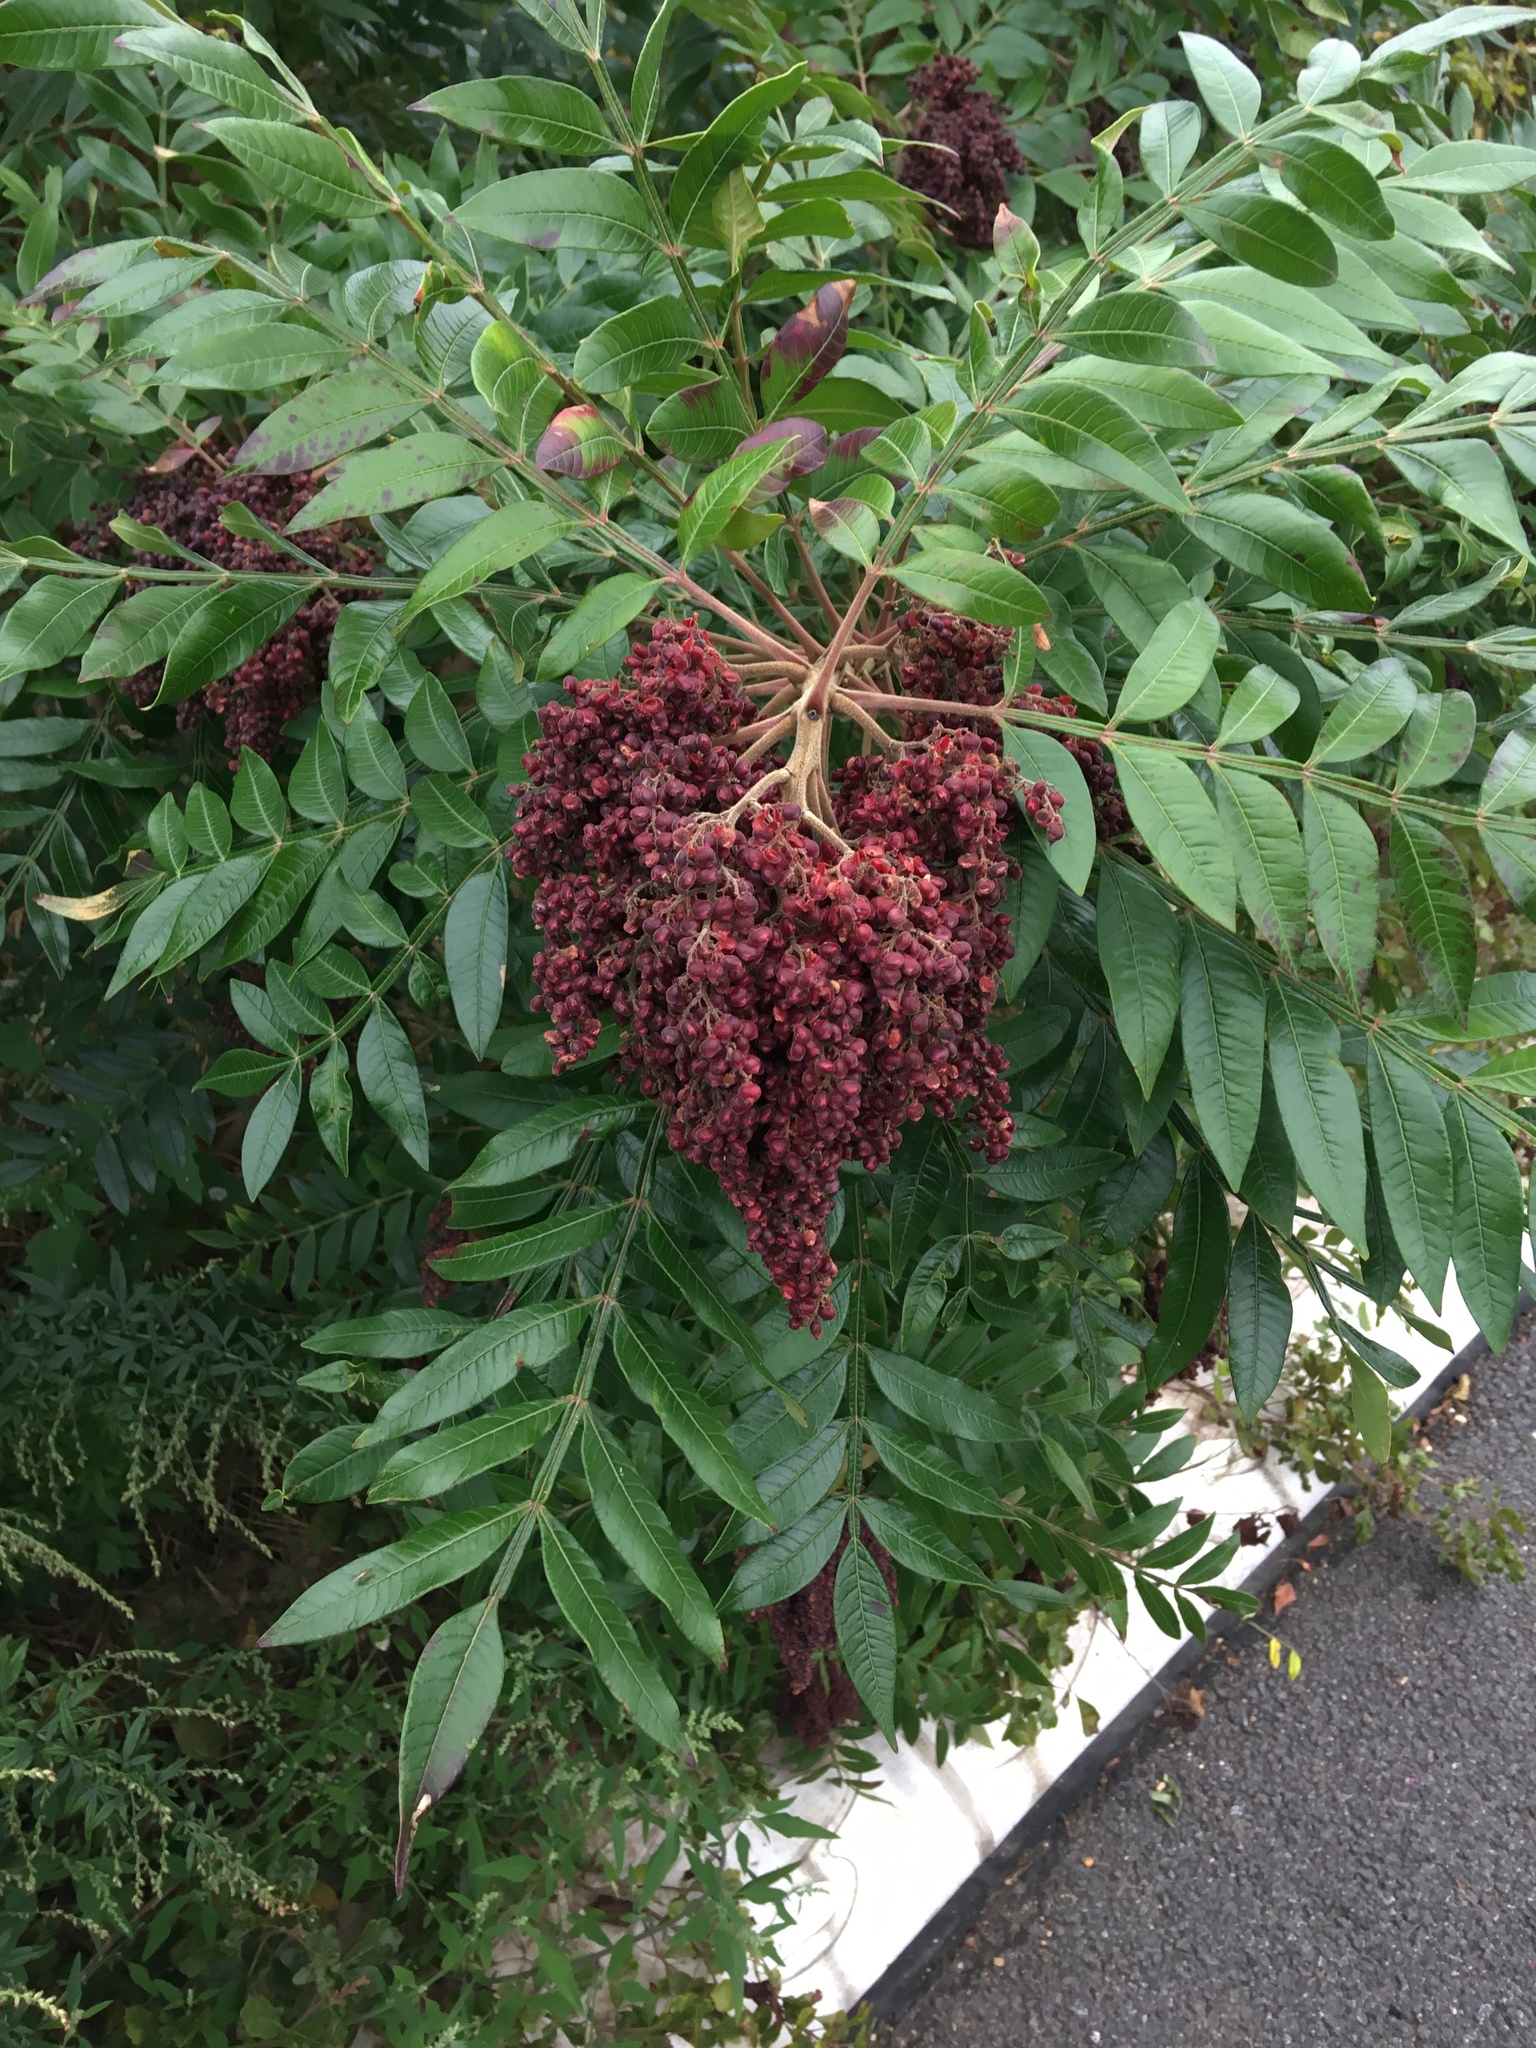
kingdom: Plantae
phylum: Tracheophyta
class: Magnoliopsida
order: Sapindales
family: Anacardiaceae
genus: Rhus
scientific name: Rhus copallina
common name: Shining sumac
